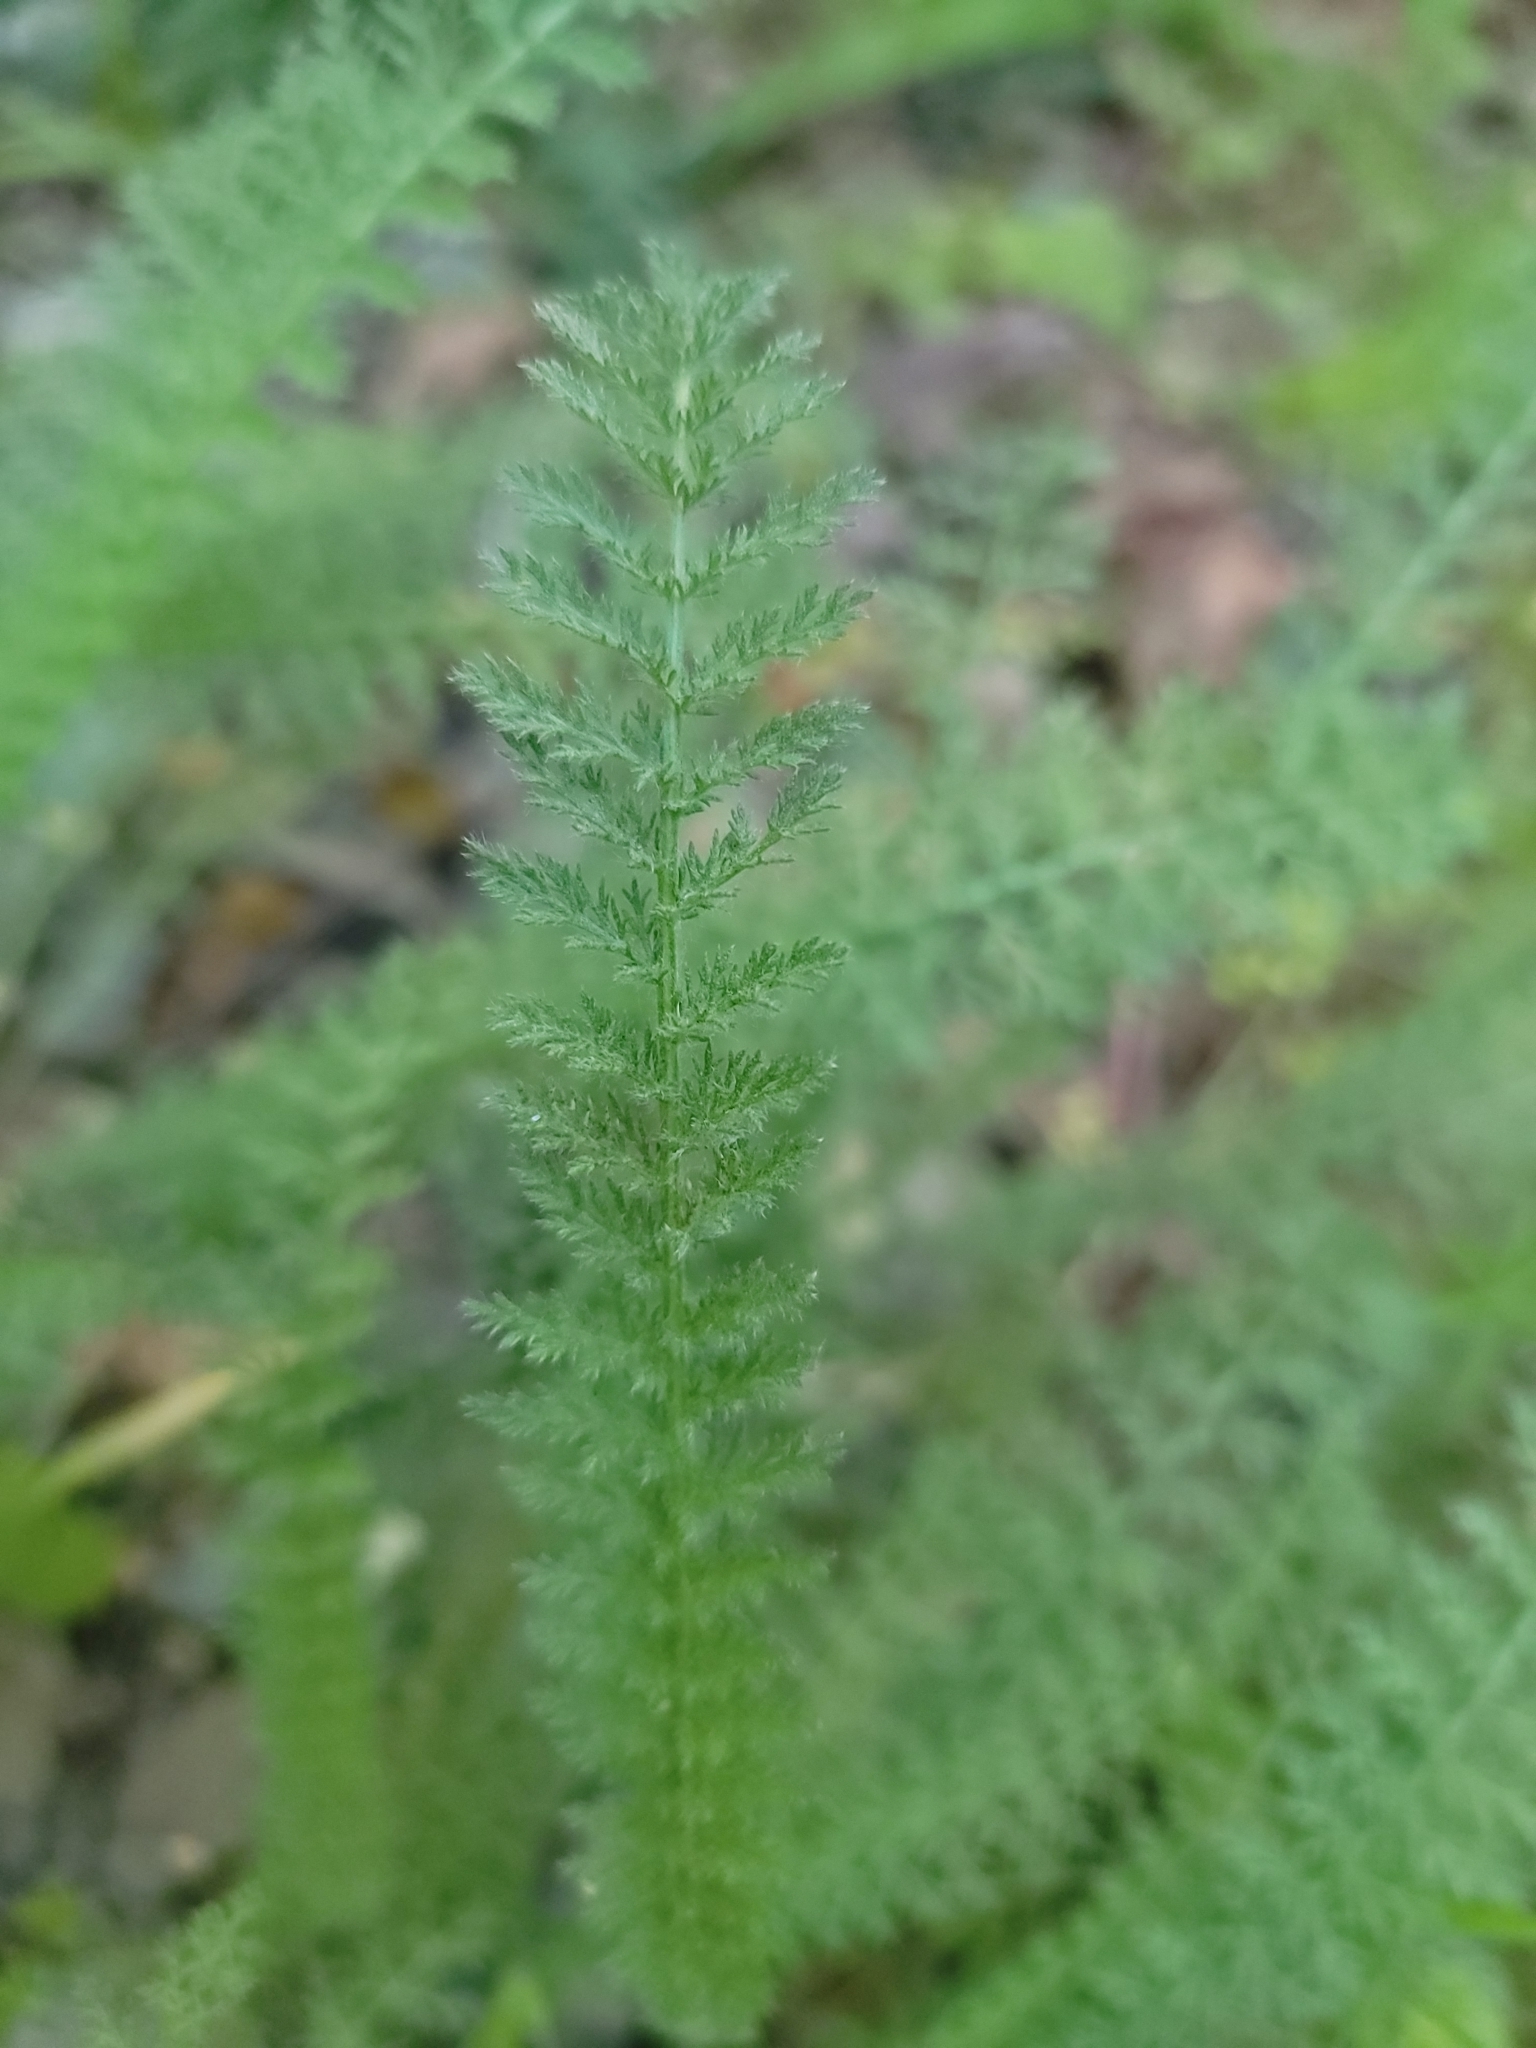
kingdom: Plantae
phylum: Tracheophyta
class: Magnoliopsida
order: Asterales
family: Asteraceae
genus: Achillea
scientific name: Achillea millefolium
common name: Yarrow
